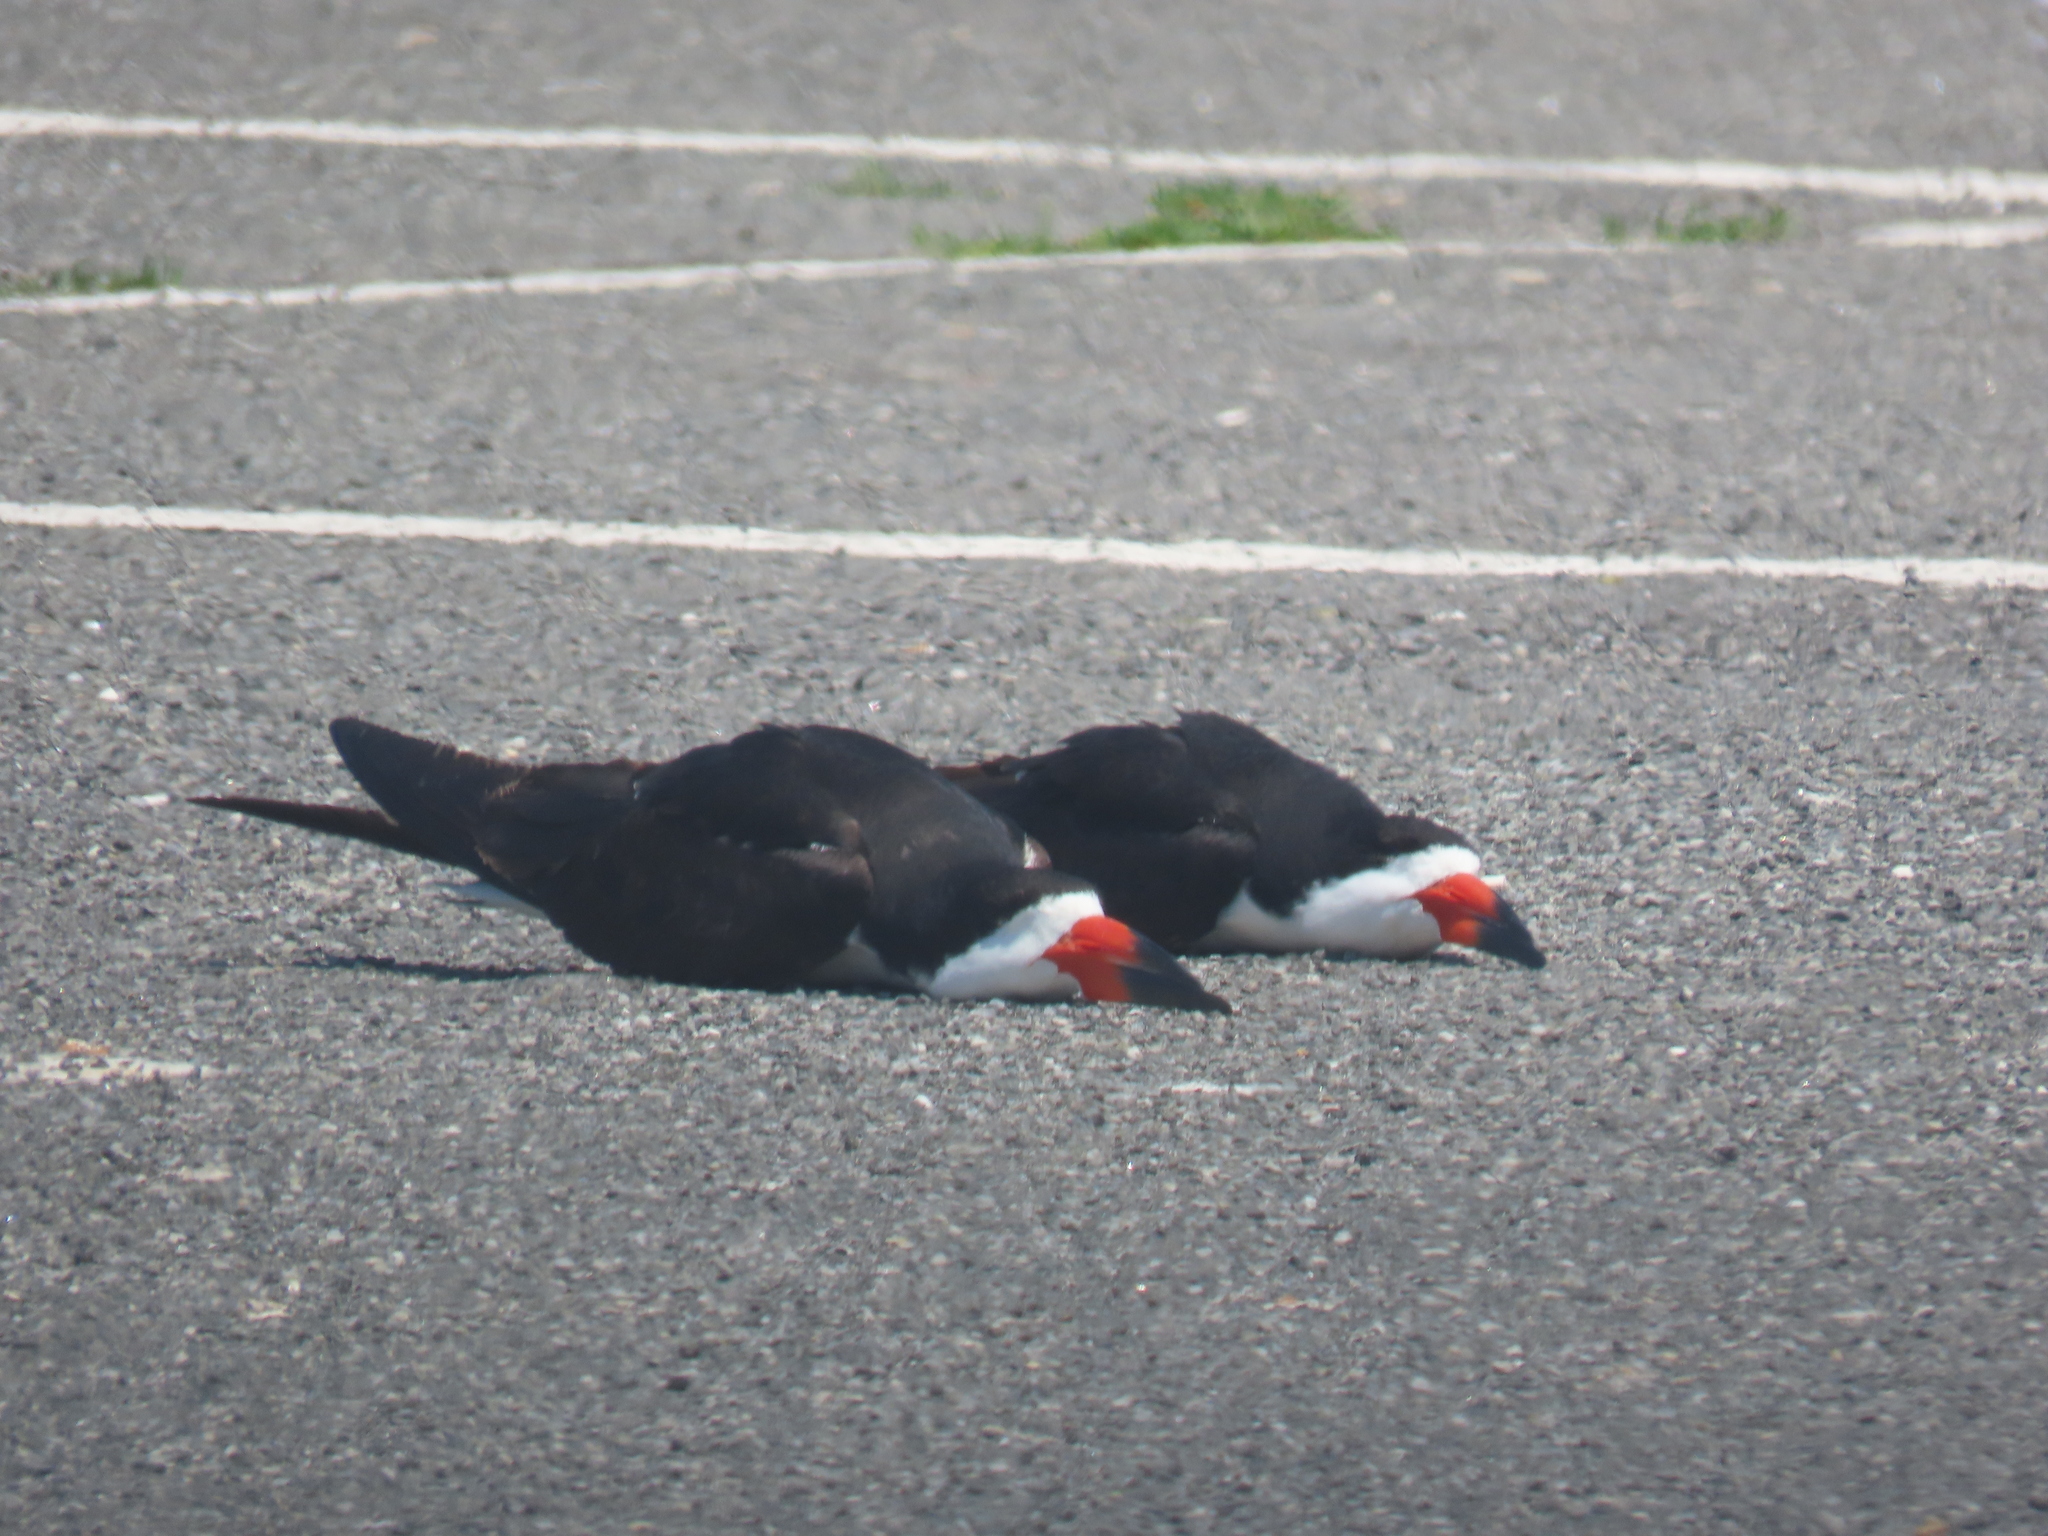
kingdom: Animalia
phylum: Chordata
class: Aves
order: Charadriiformes
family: Laridae
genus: Rynchops
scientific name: Rynchops niger
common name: Black skimmer
